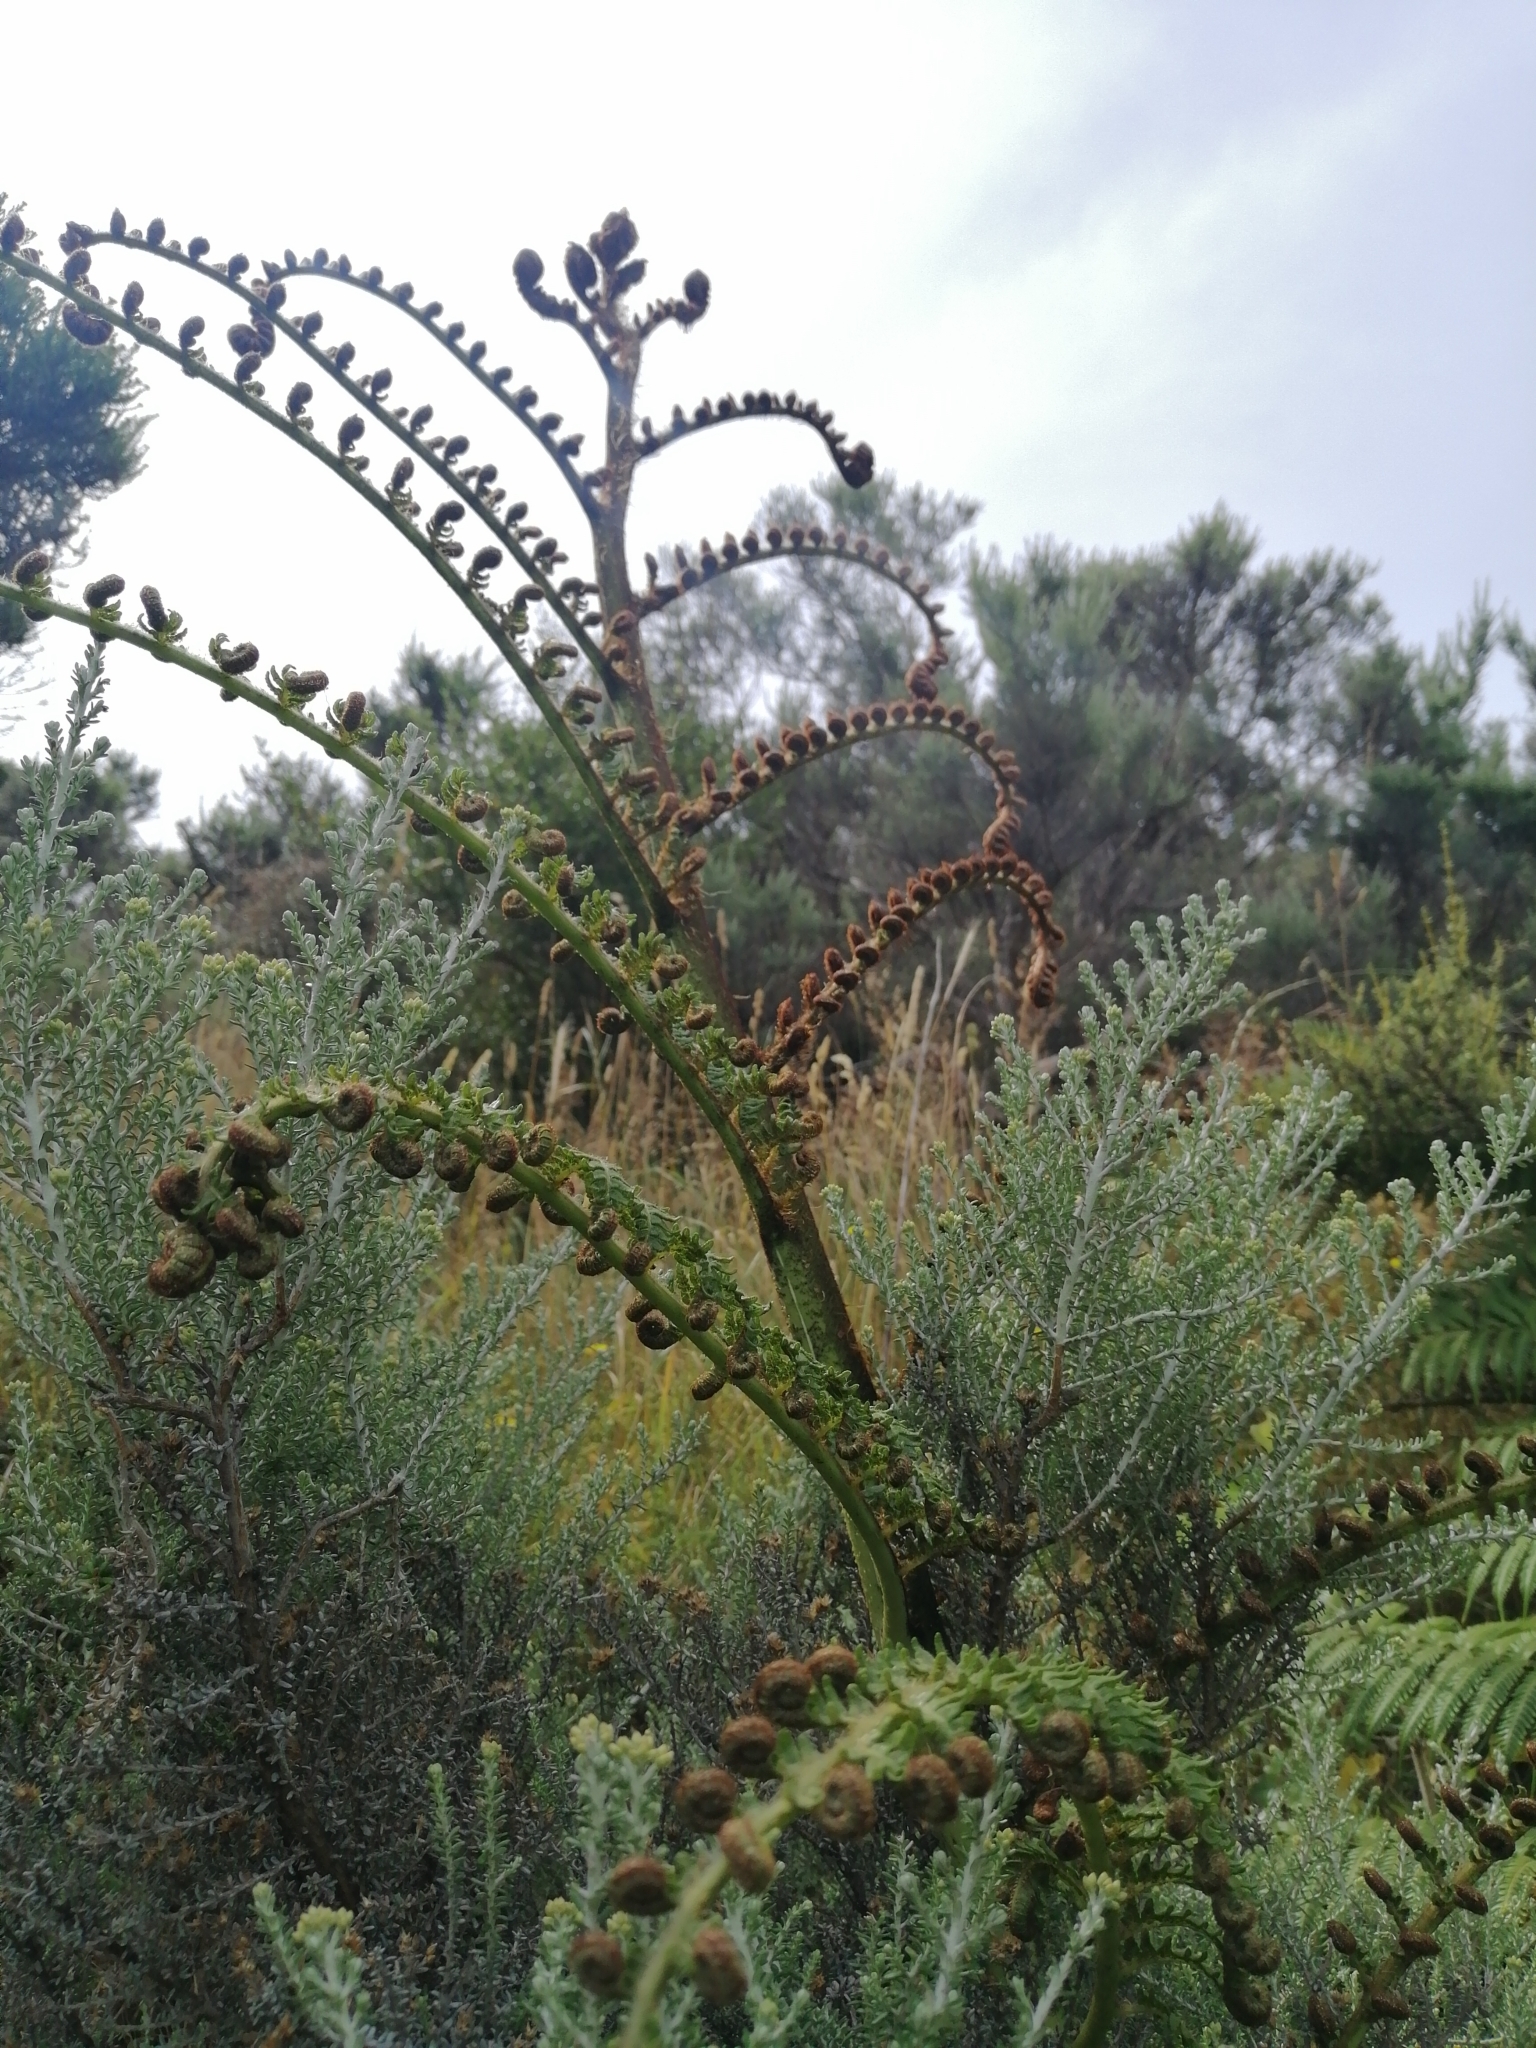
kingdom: Plantae
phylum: Tracheophyta
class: Polypodiopsida
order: Cyatheales
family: Cyatheaceae
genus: Sphaeropteris
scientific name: Sphaeropteris medullaris
